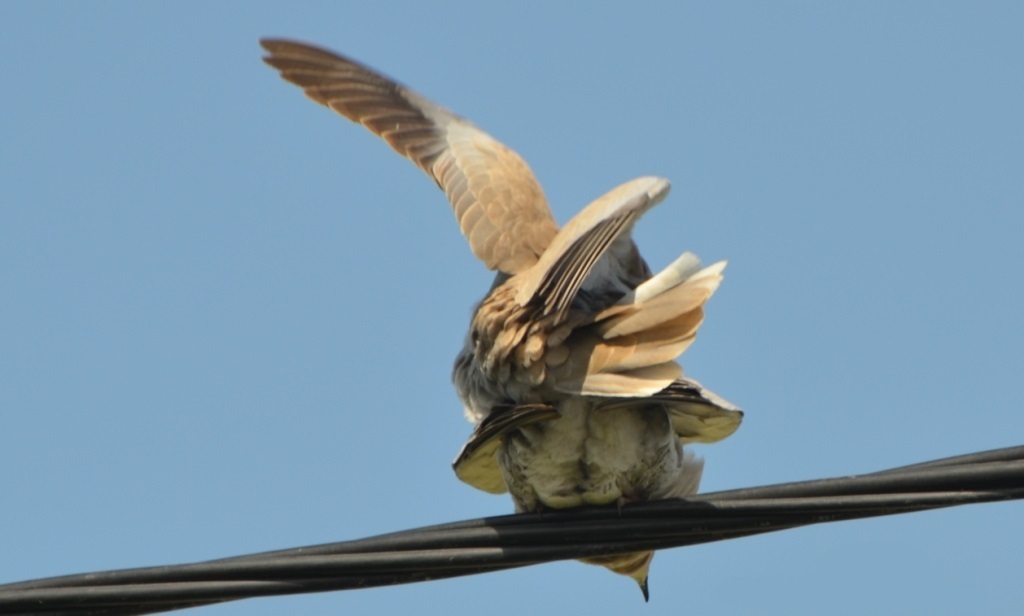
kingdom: Animalia
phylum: Chordata
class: Aves
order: Columbiformes
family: Columbidae
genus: Streptopelia
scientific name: Streptopelia decaocto
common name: Eurasian collared dove
